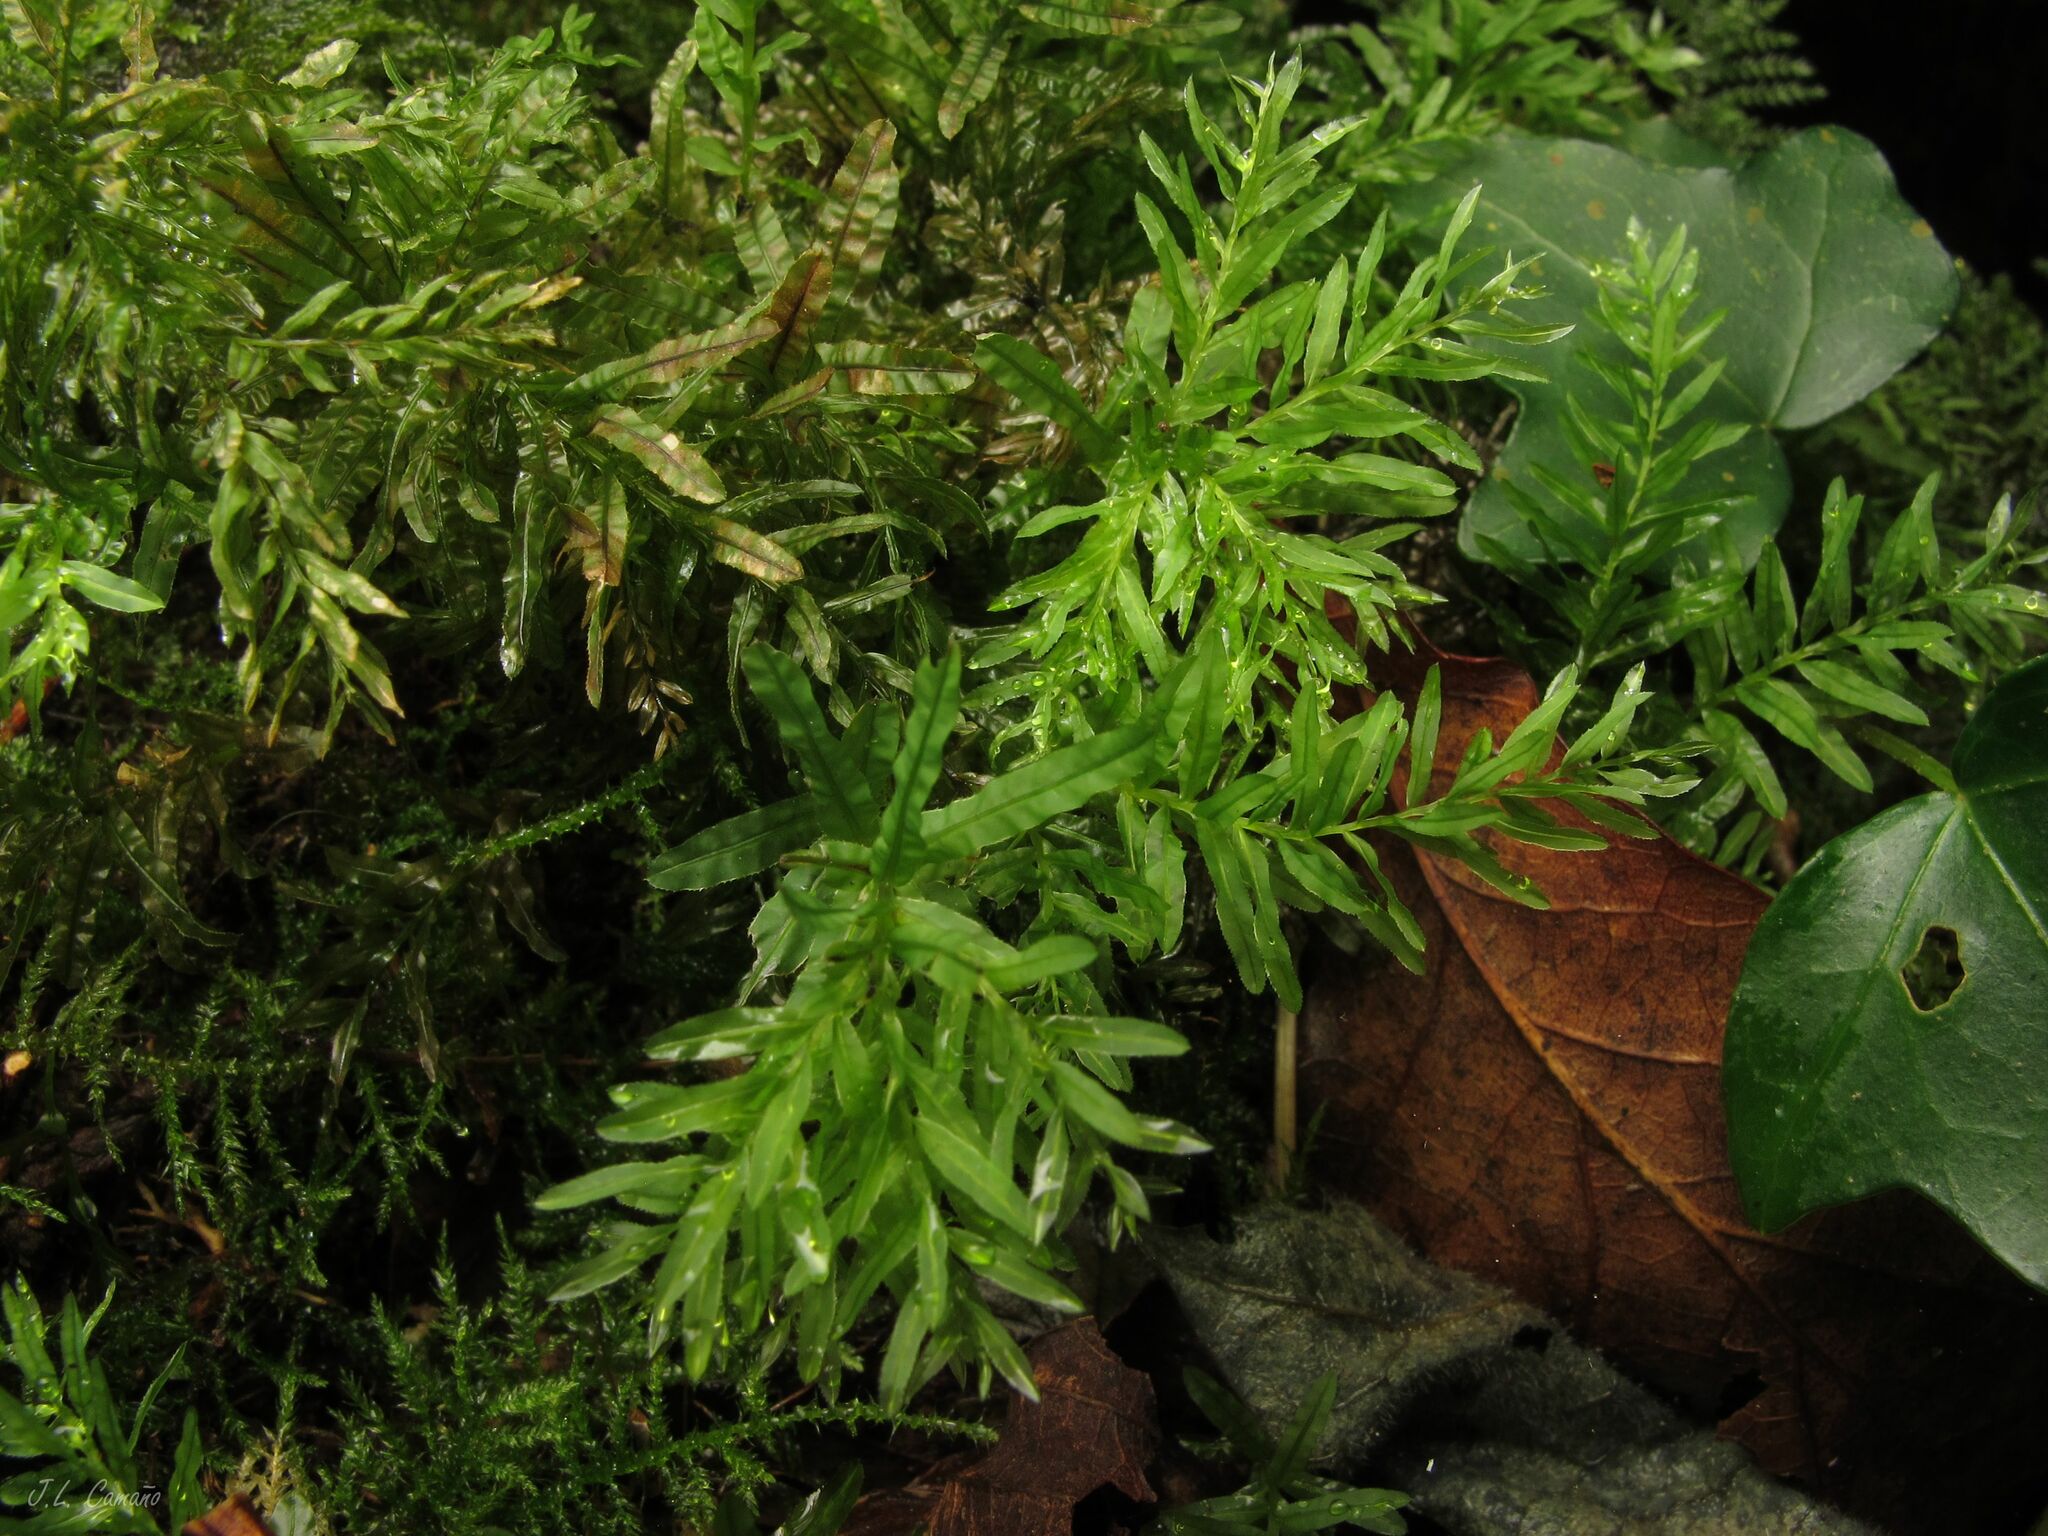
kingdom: Plantae
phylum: Bryophyta
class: Bryopsida
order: Bryales
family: Mniaceae
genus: Plagiomnium
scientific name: Plagiomnium undulatum
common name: Hart's-tongue thyme-moss
